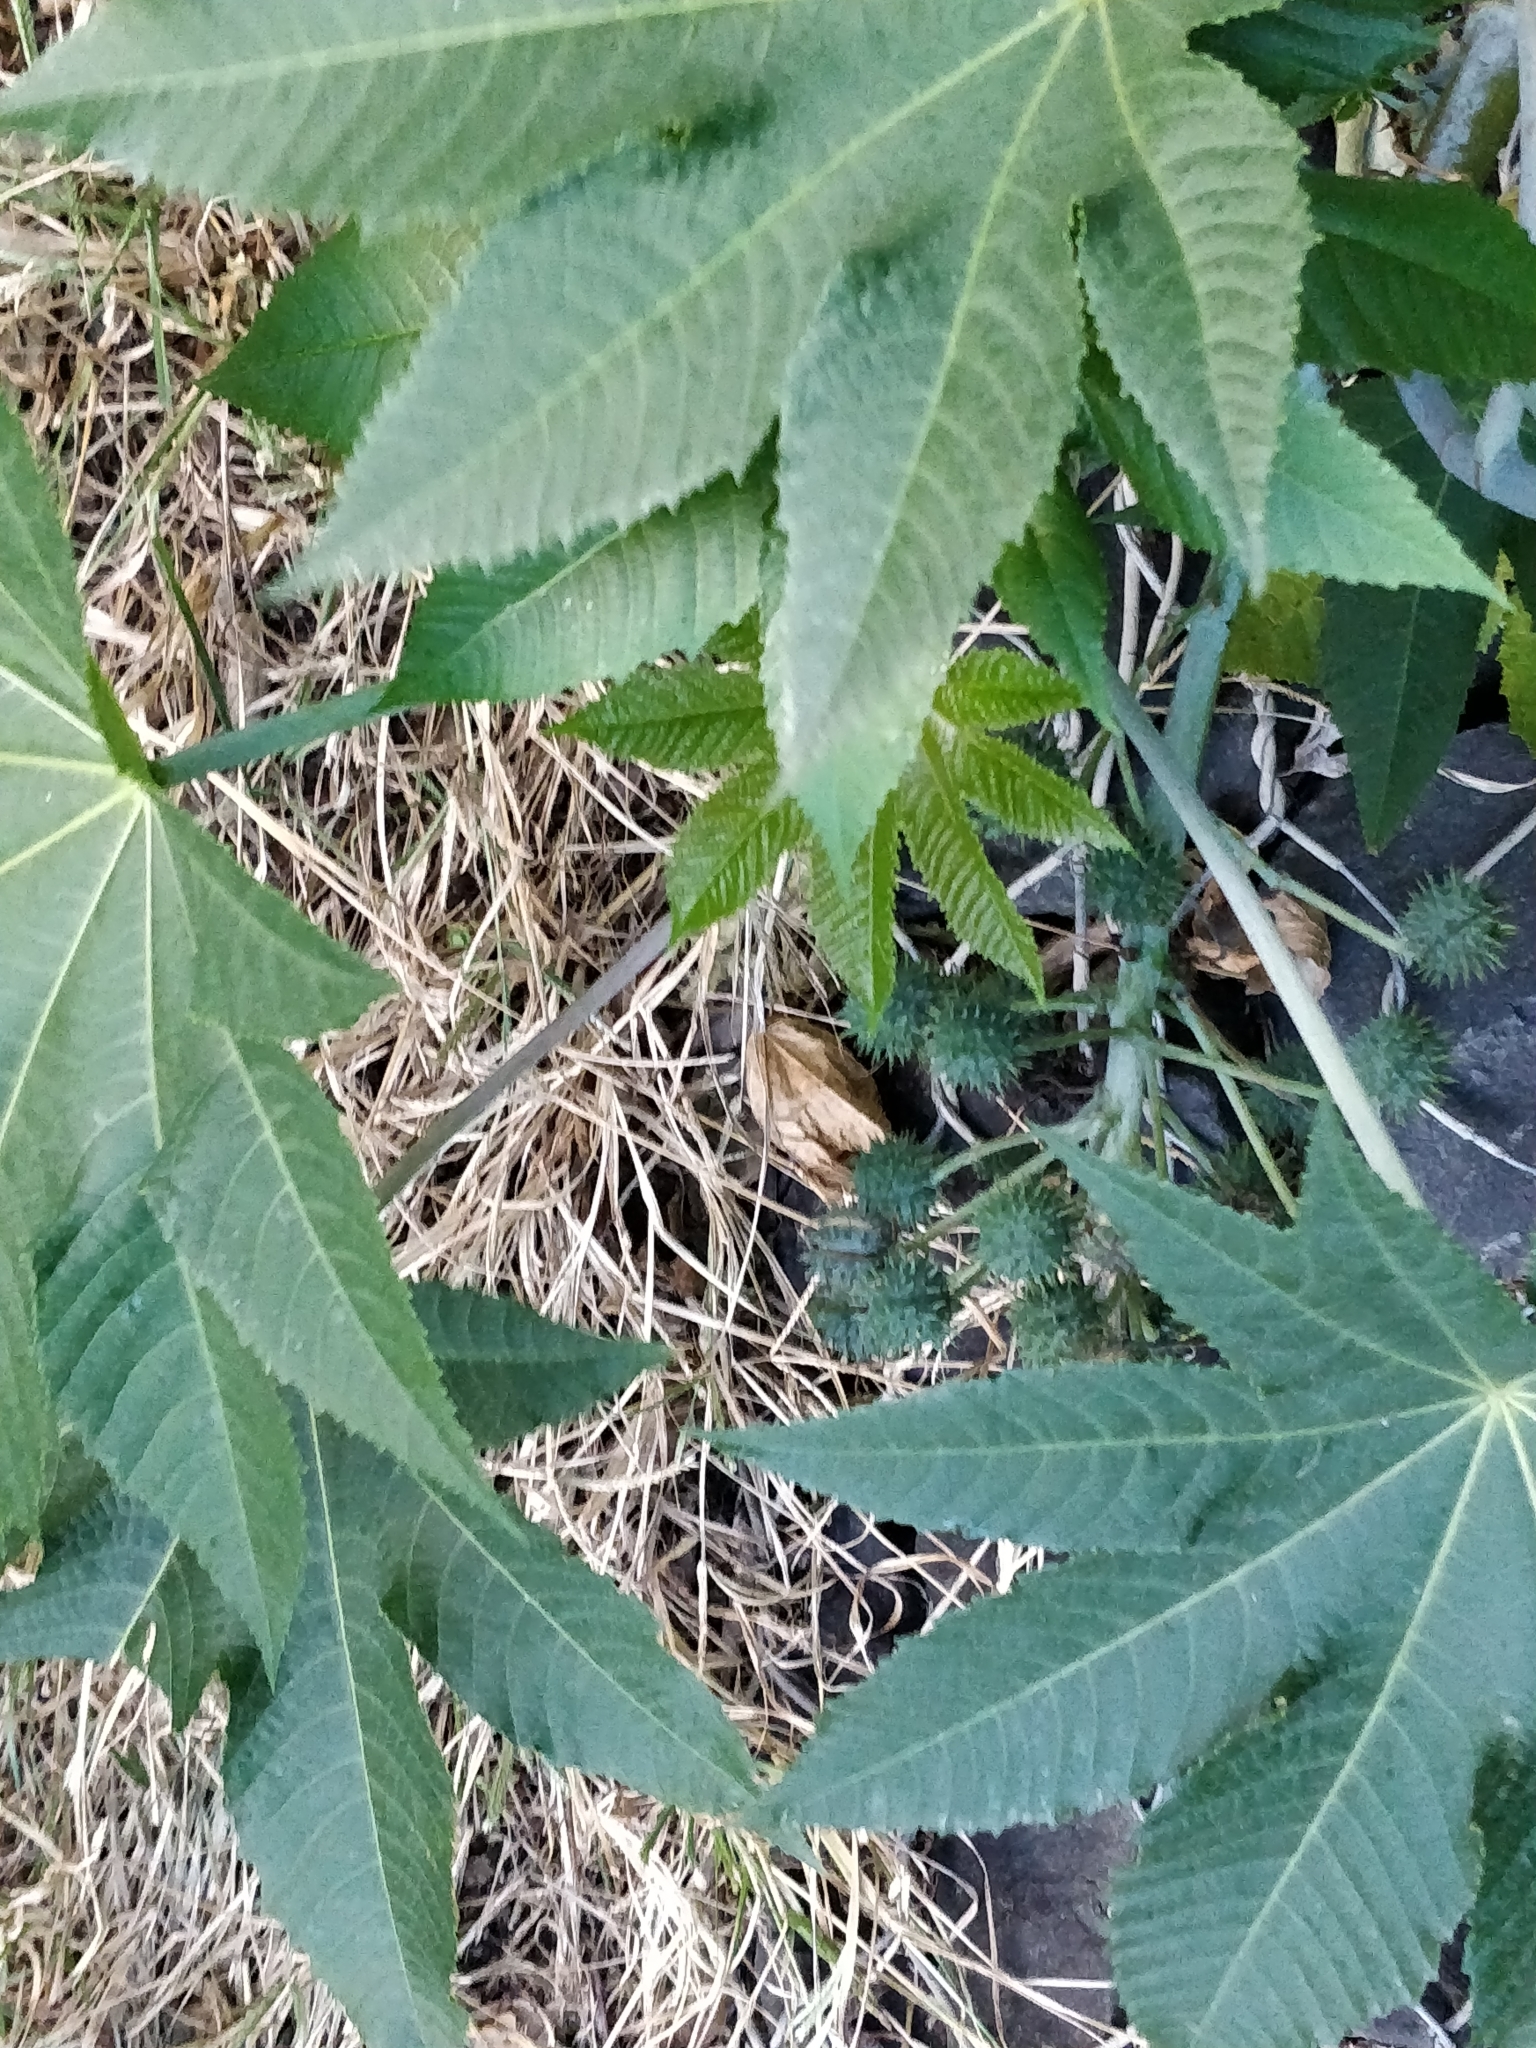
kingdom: Plantae
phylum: Tracheophyta
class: Magnoliopsida
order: Malpighiales
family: Euphorbiaceae
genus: Ricinus
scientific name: Ricinus communis
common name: Castor-oil-plant
